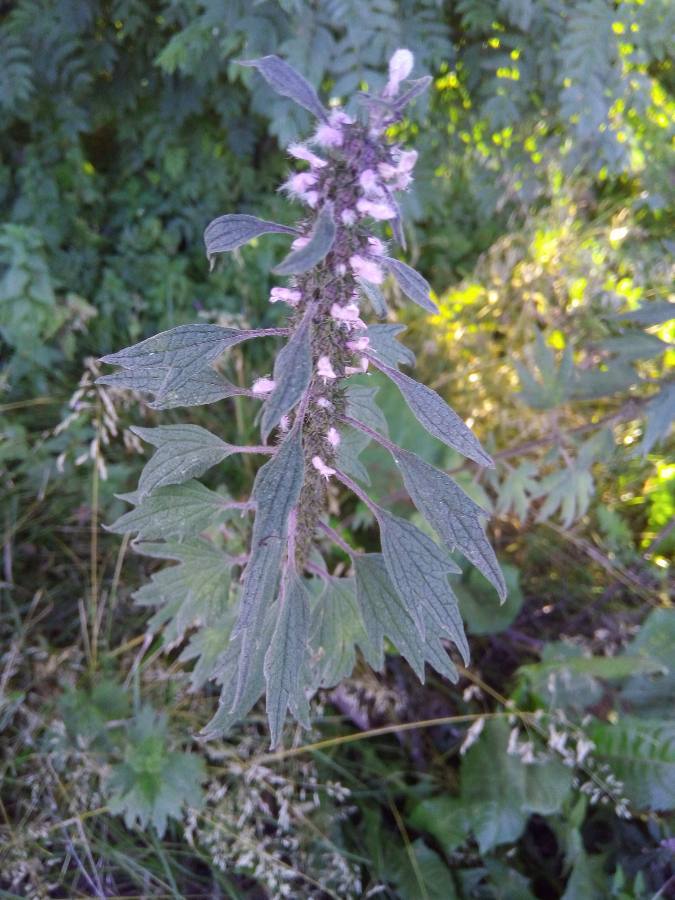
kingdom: Plantae
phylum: Tracheophyta
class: Magnoliopsida
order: Lamiales
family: Lamiaceae
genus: Leonurus
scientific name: Leonurus quinquelobatus
